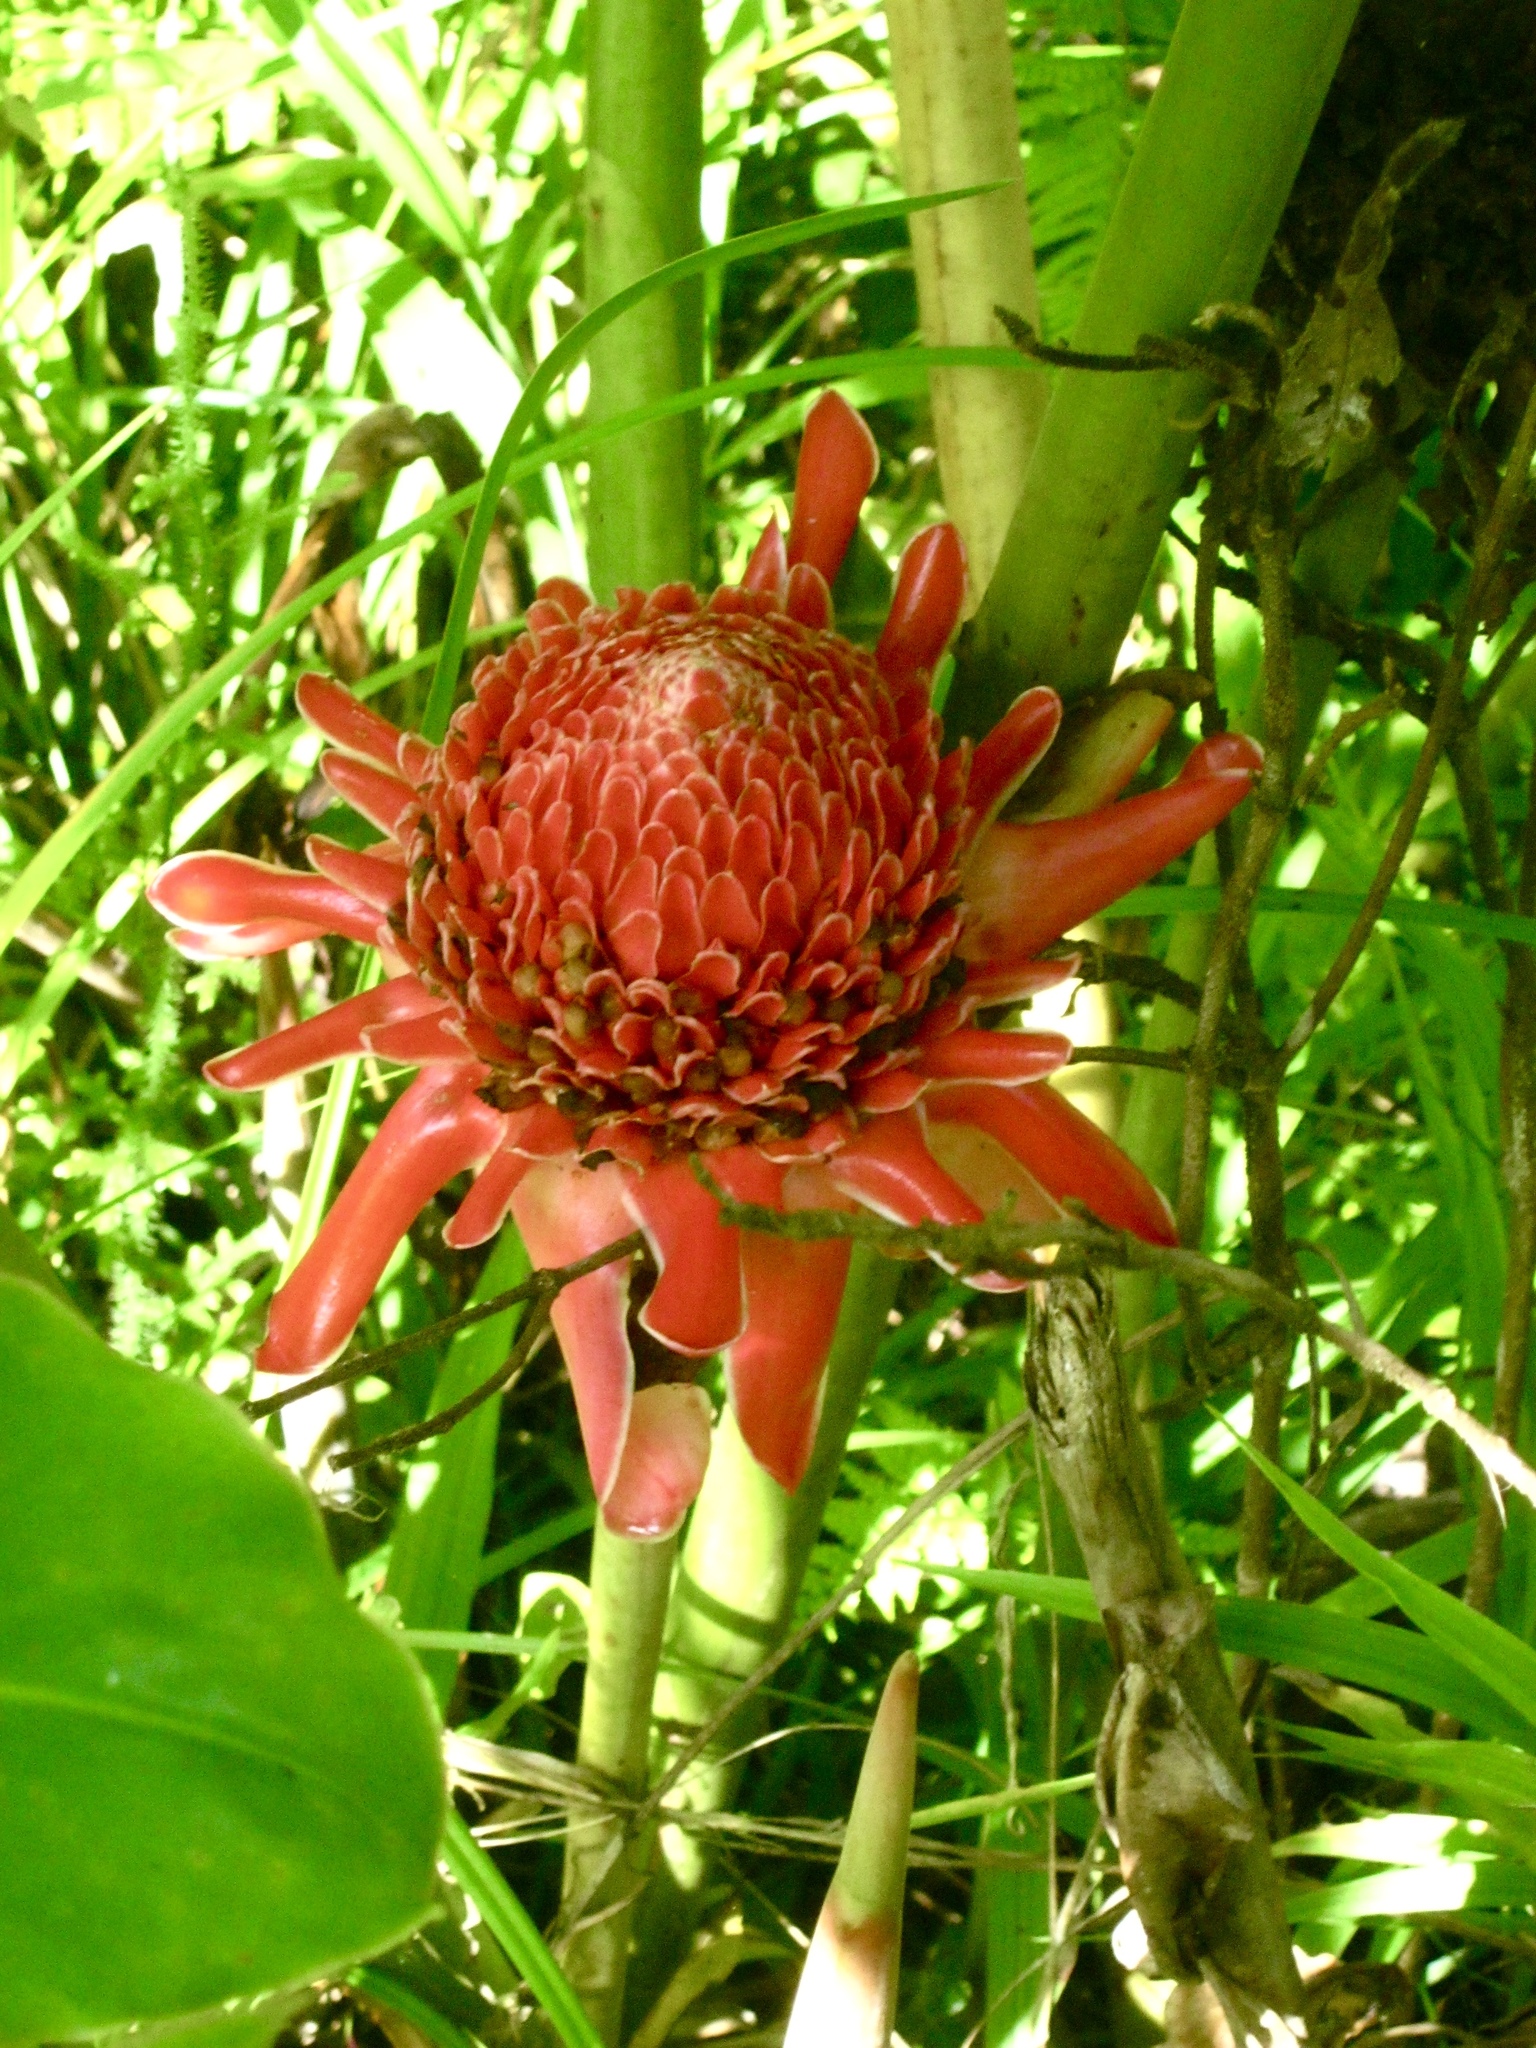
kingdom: Plantae
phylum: Tracheophyta
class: Liliopsida
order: Zingiberales
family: Zingiberaceae
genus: Etlingera
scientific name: Etlingera elatior
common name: Philippine waxflower
